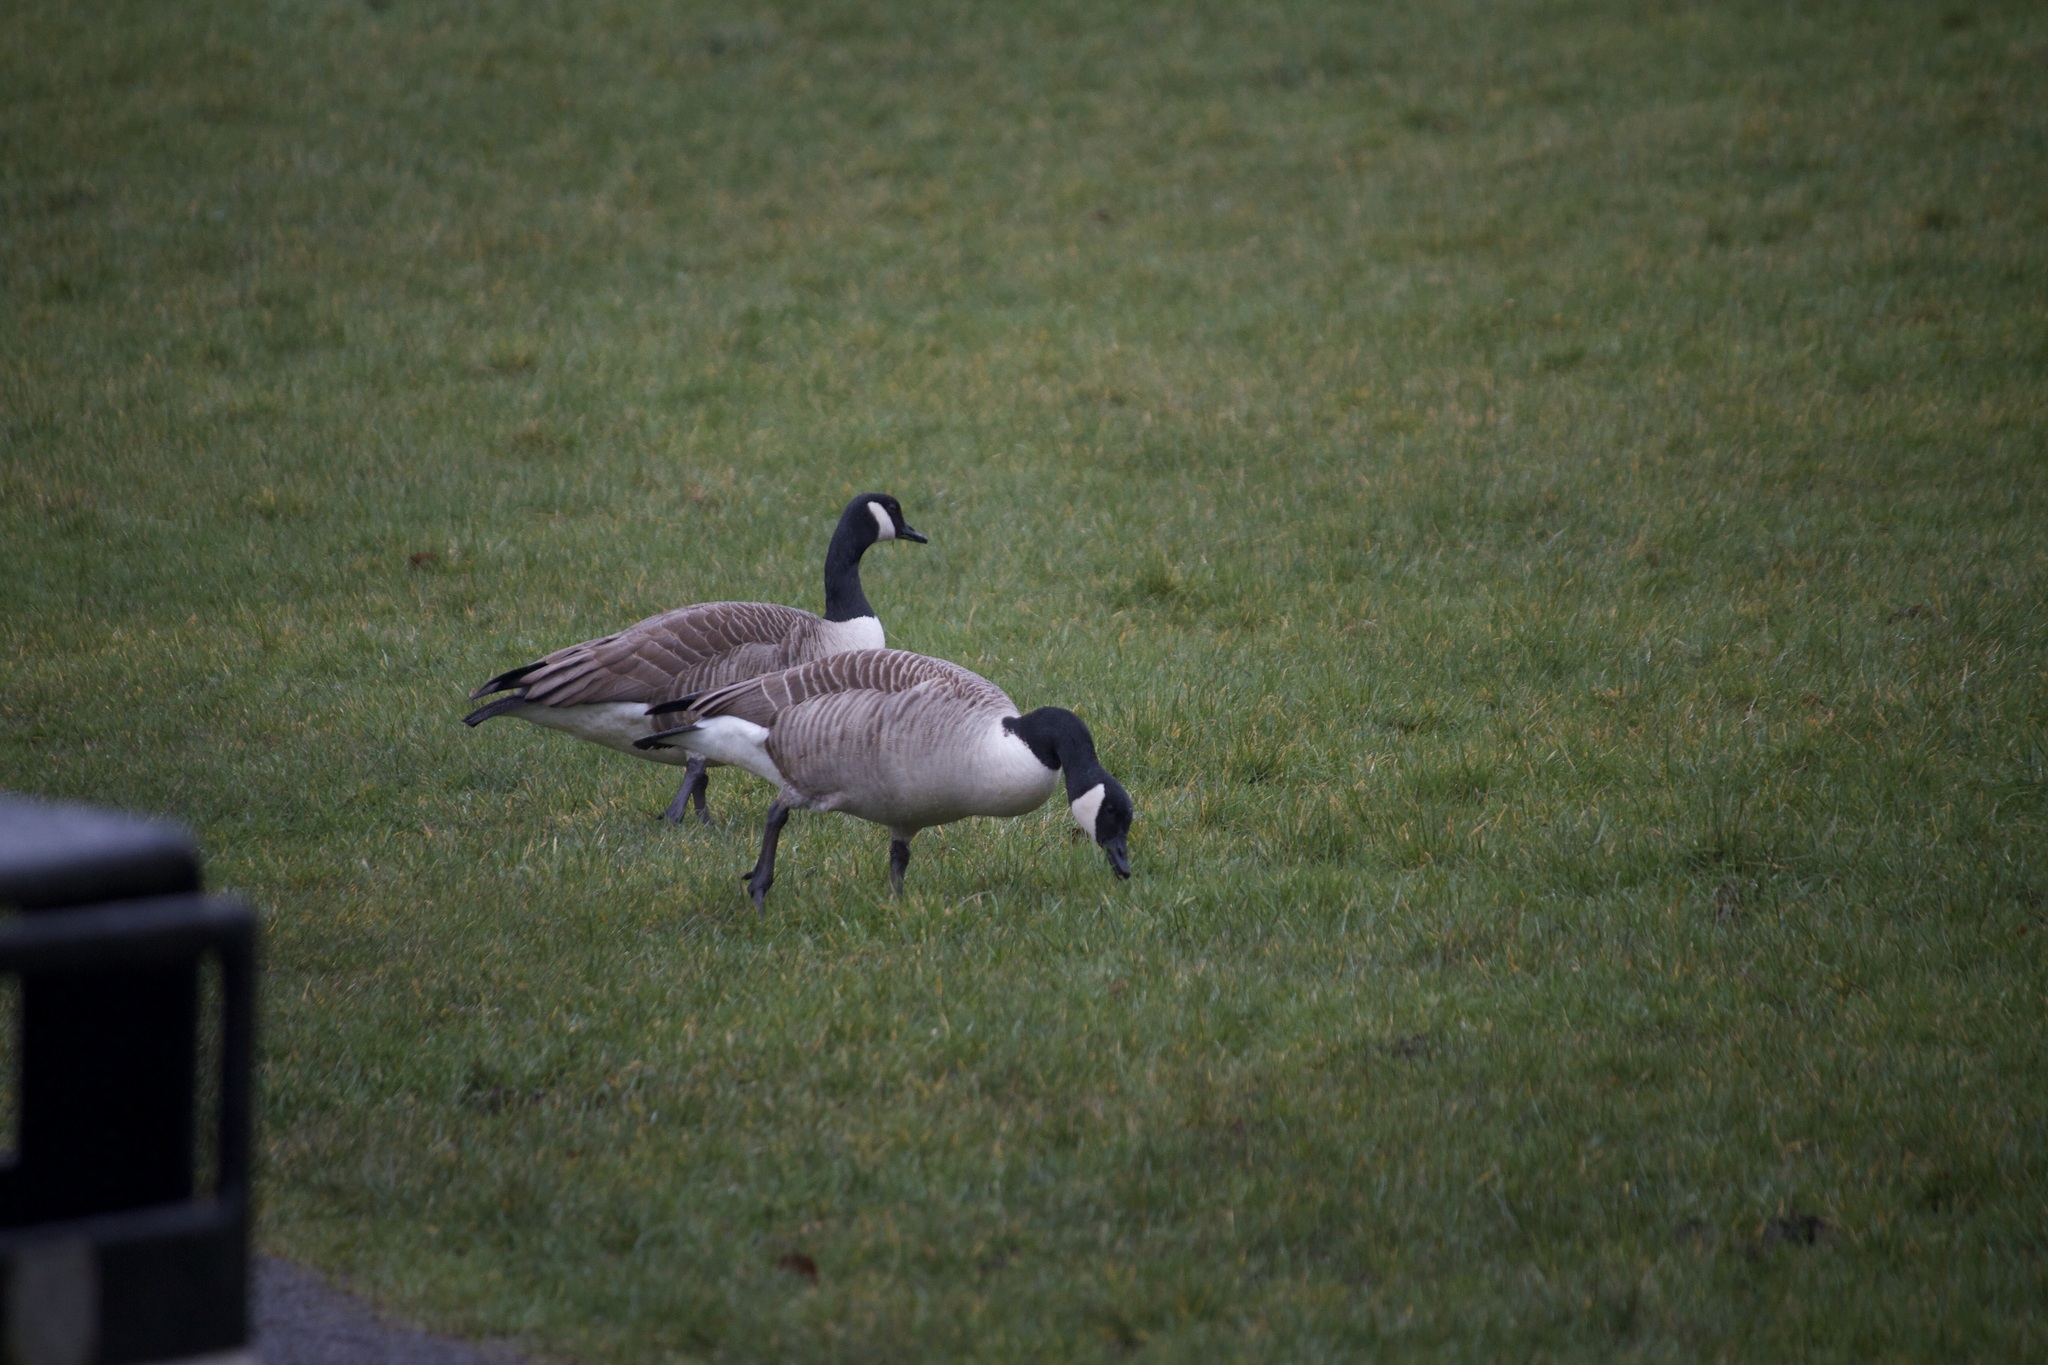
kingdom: Animalia
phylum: Chordata
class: Aves
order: Anseriformes
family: Anatidae
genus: Branta
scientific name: Branta canadensis
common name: Canada goose
